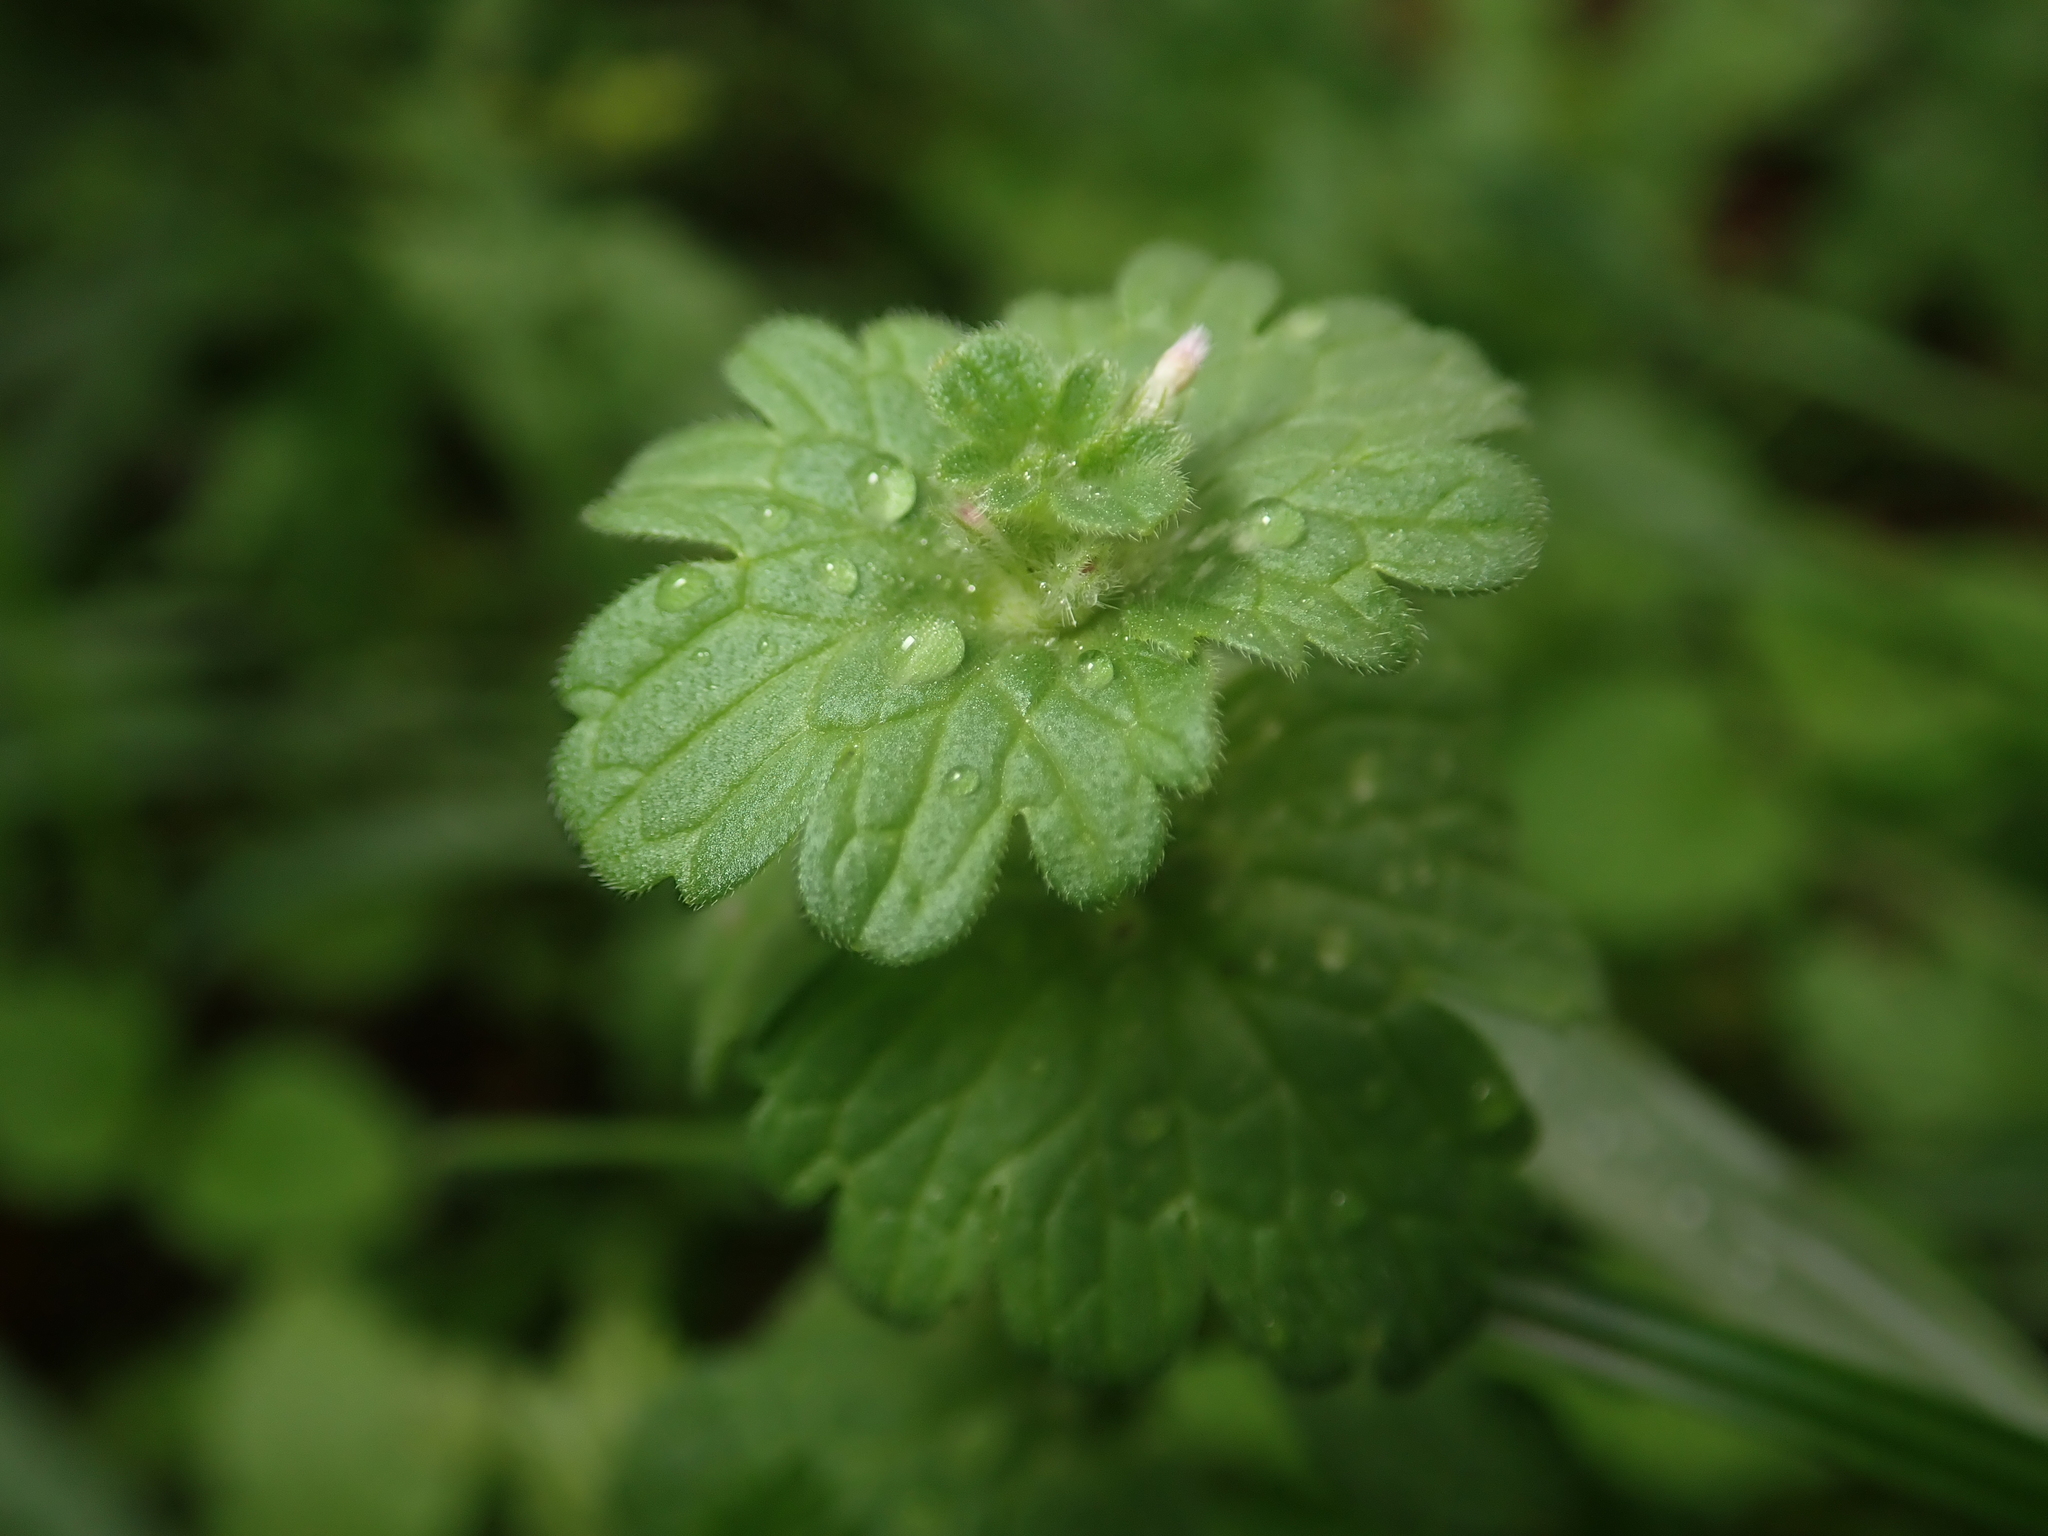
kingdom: Plantae
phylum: Tracheophyta
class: Magnoliopsida
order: Lamiales
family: Lamiaceae
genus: Lamium
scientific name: Lamium amplexicaule
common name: Henbit dead-nettle
